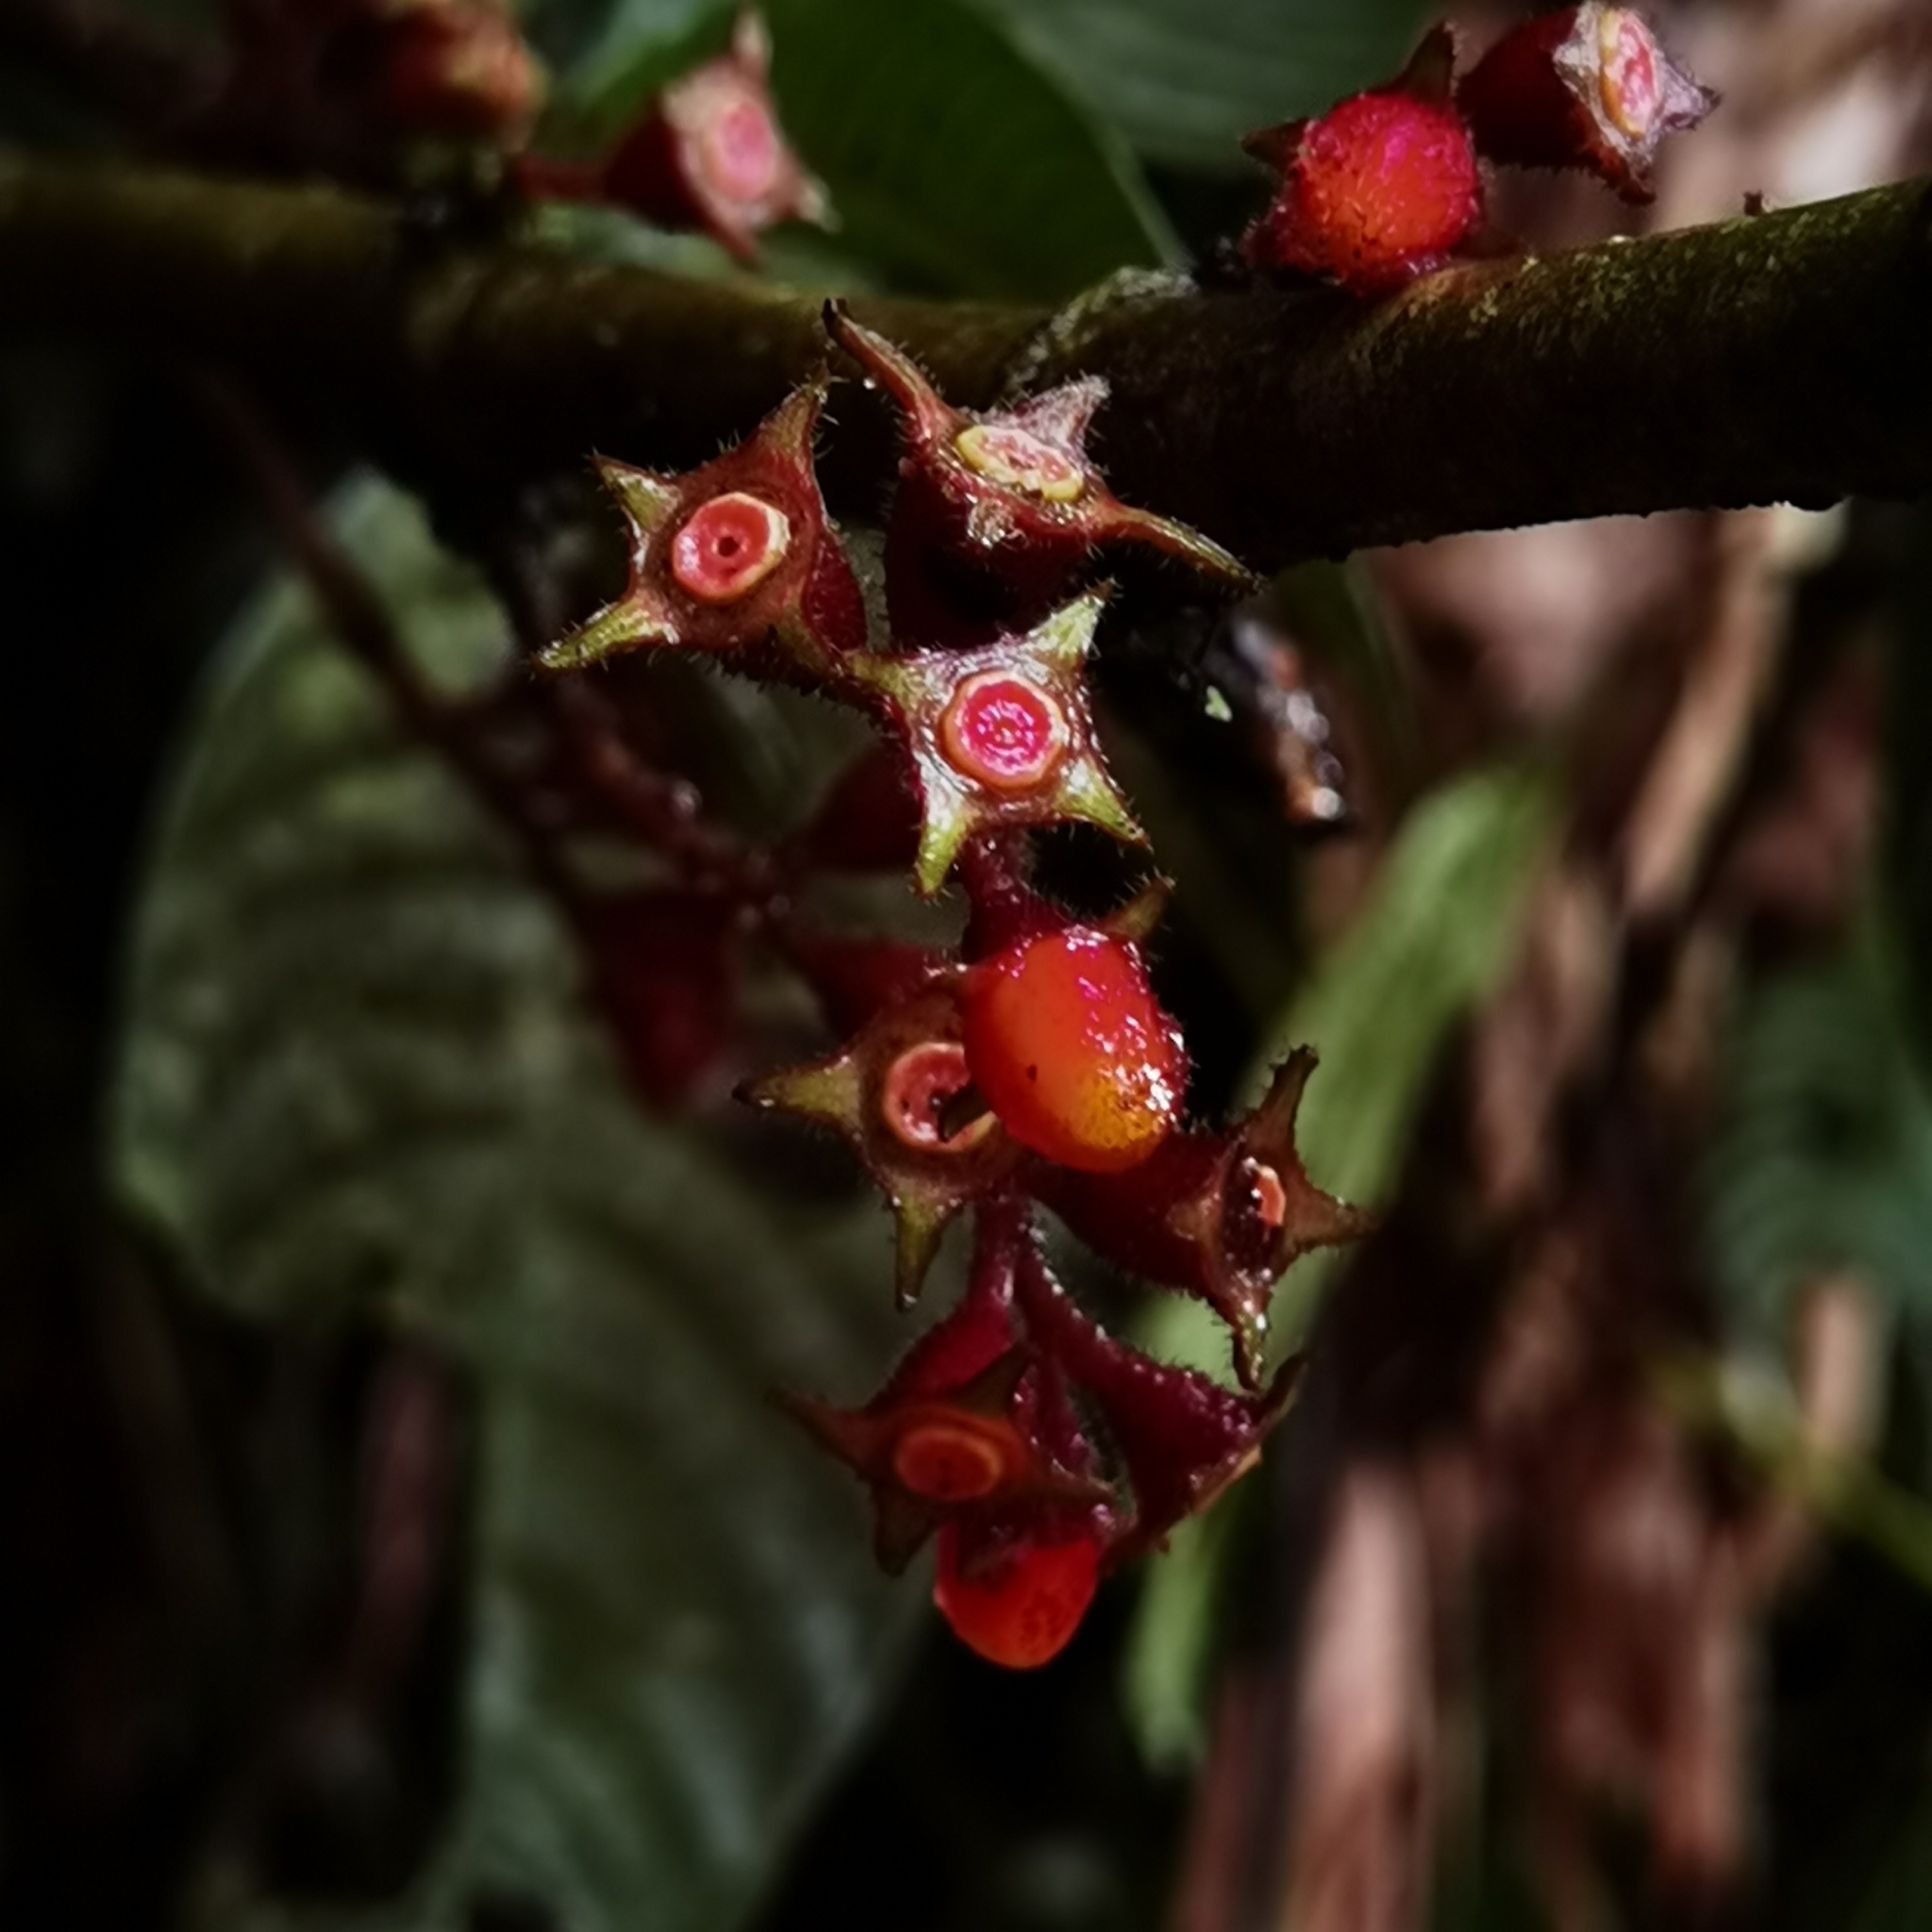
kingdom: Plantae
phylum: Tracheophyta
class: Magnoliopsida
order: Gentianales
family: Rubiaceae
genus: Hoffmannia
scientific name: Hoffmannia dotae
